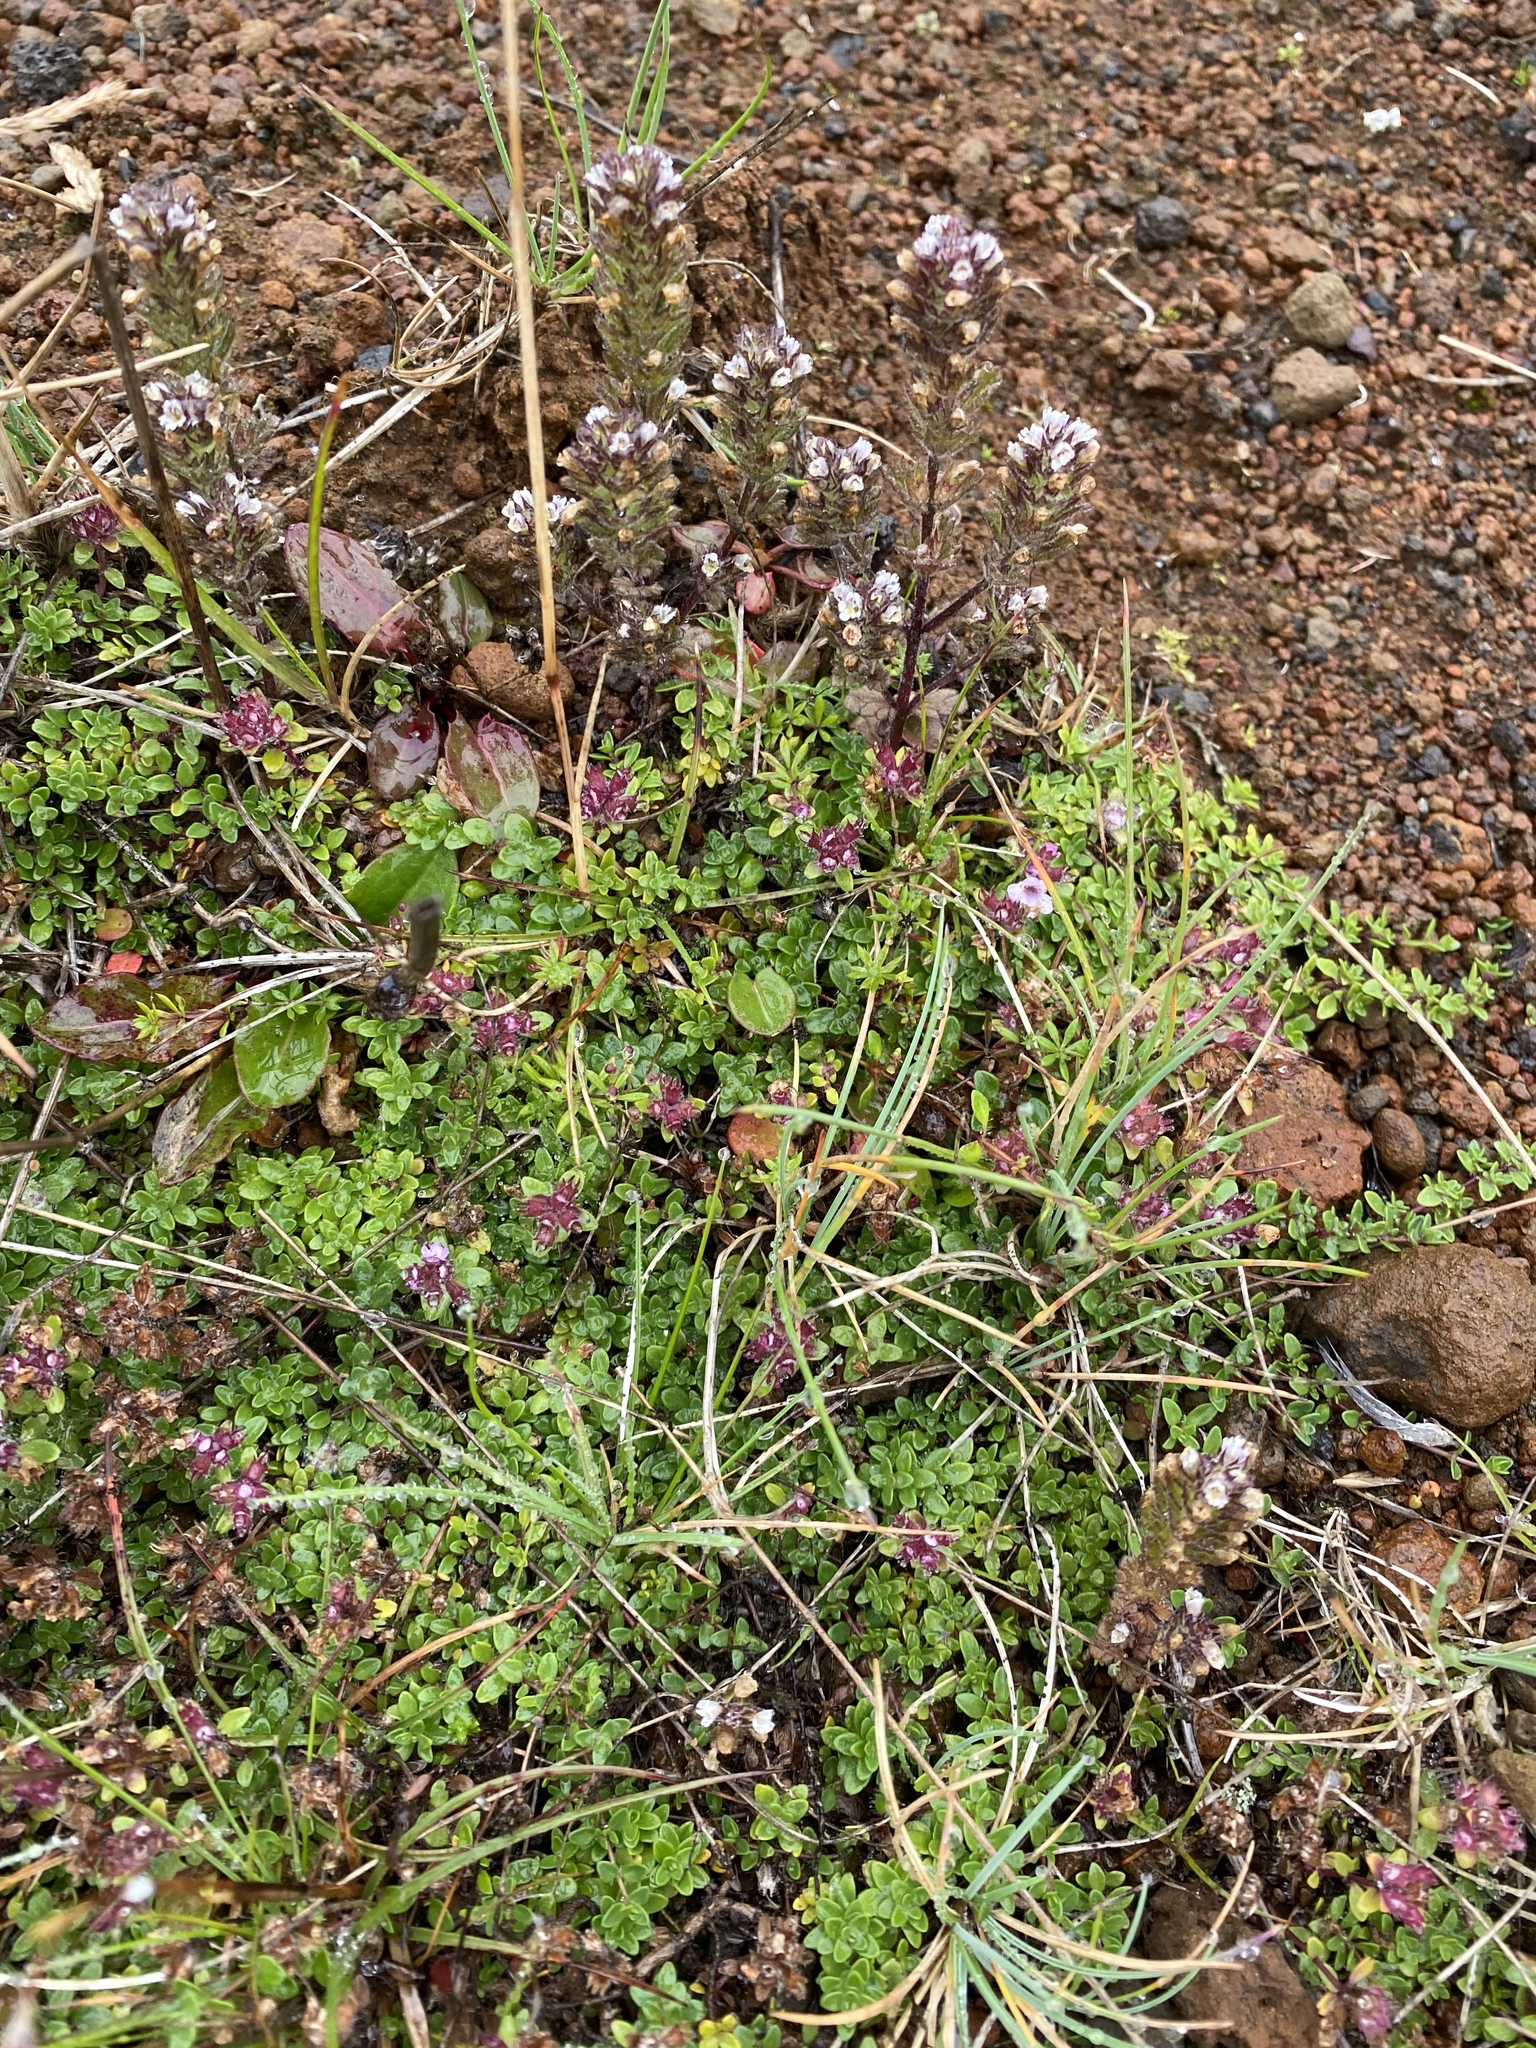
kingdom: Plantae
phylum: Tracheophyta
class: Magnoliopsida
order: Lamiales
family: Orobanchaceae
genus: Euphrasia
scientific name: Euphrasia frigida
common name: An eyebright
